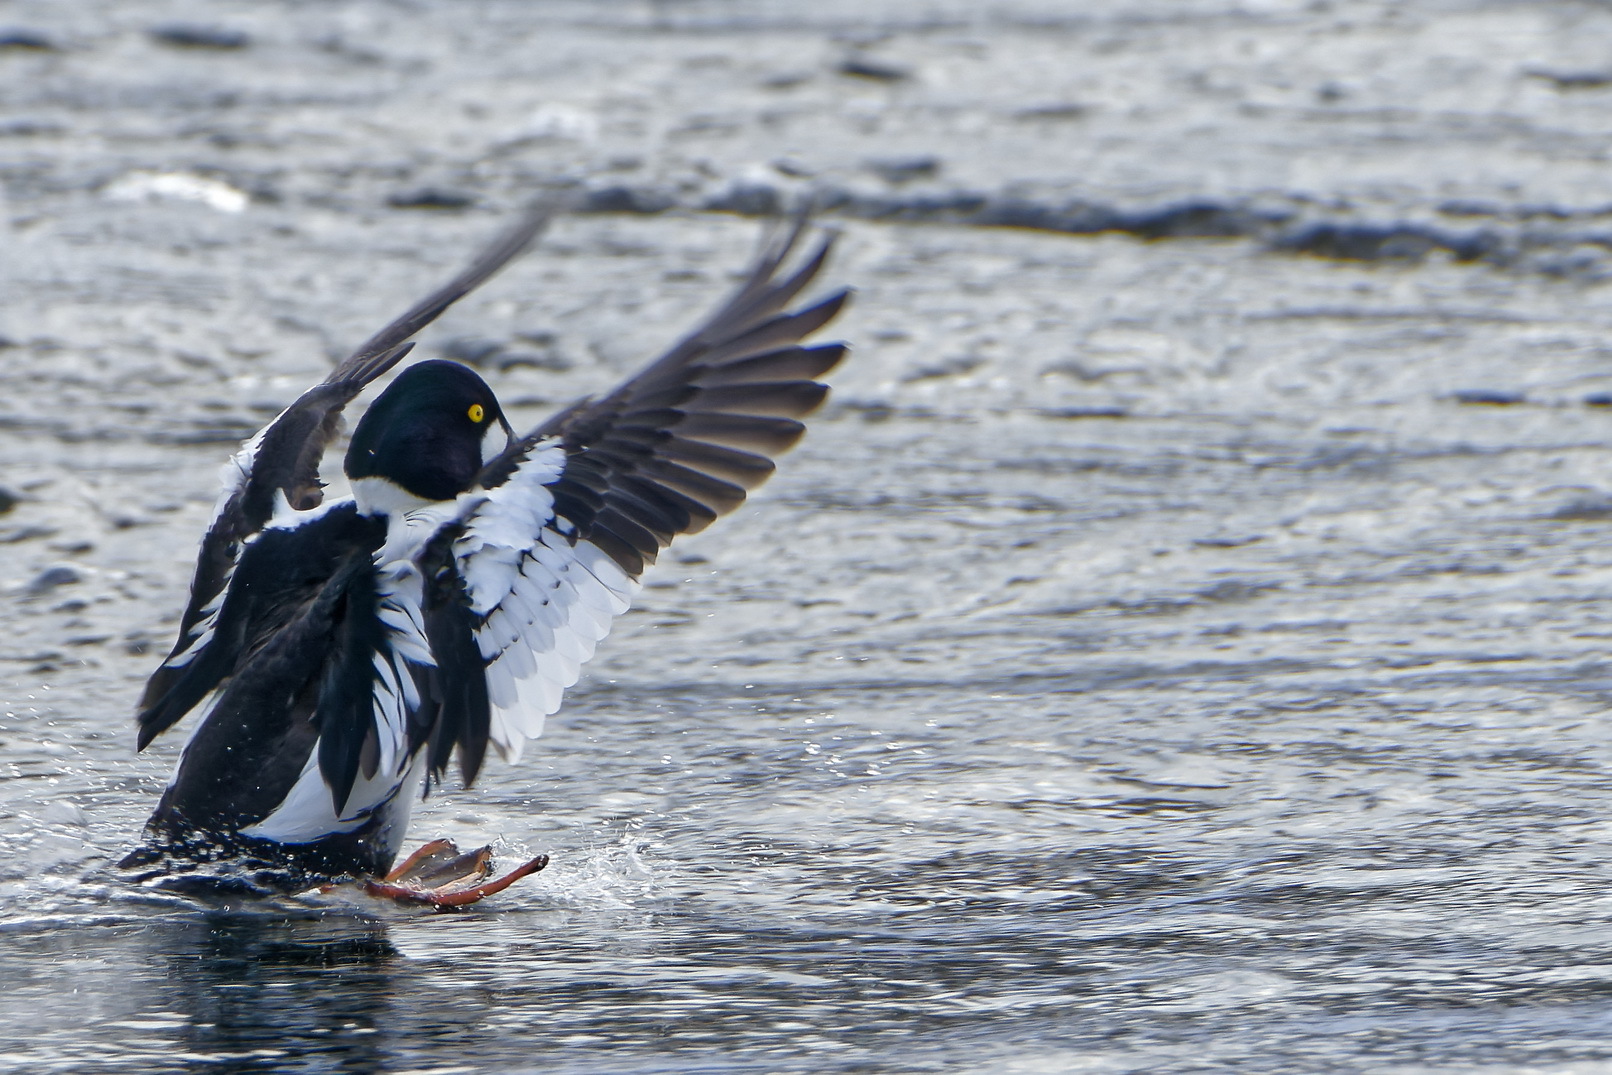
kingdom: Animalia
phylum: Chordata
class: Aves
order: Anseriformes
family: Anatidae
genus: Bucephala
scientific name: Bucephala clangula
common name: Common goldeneye
